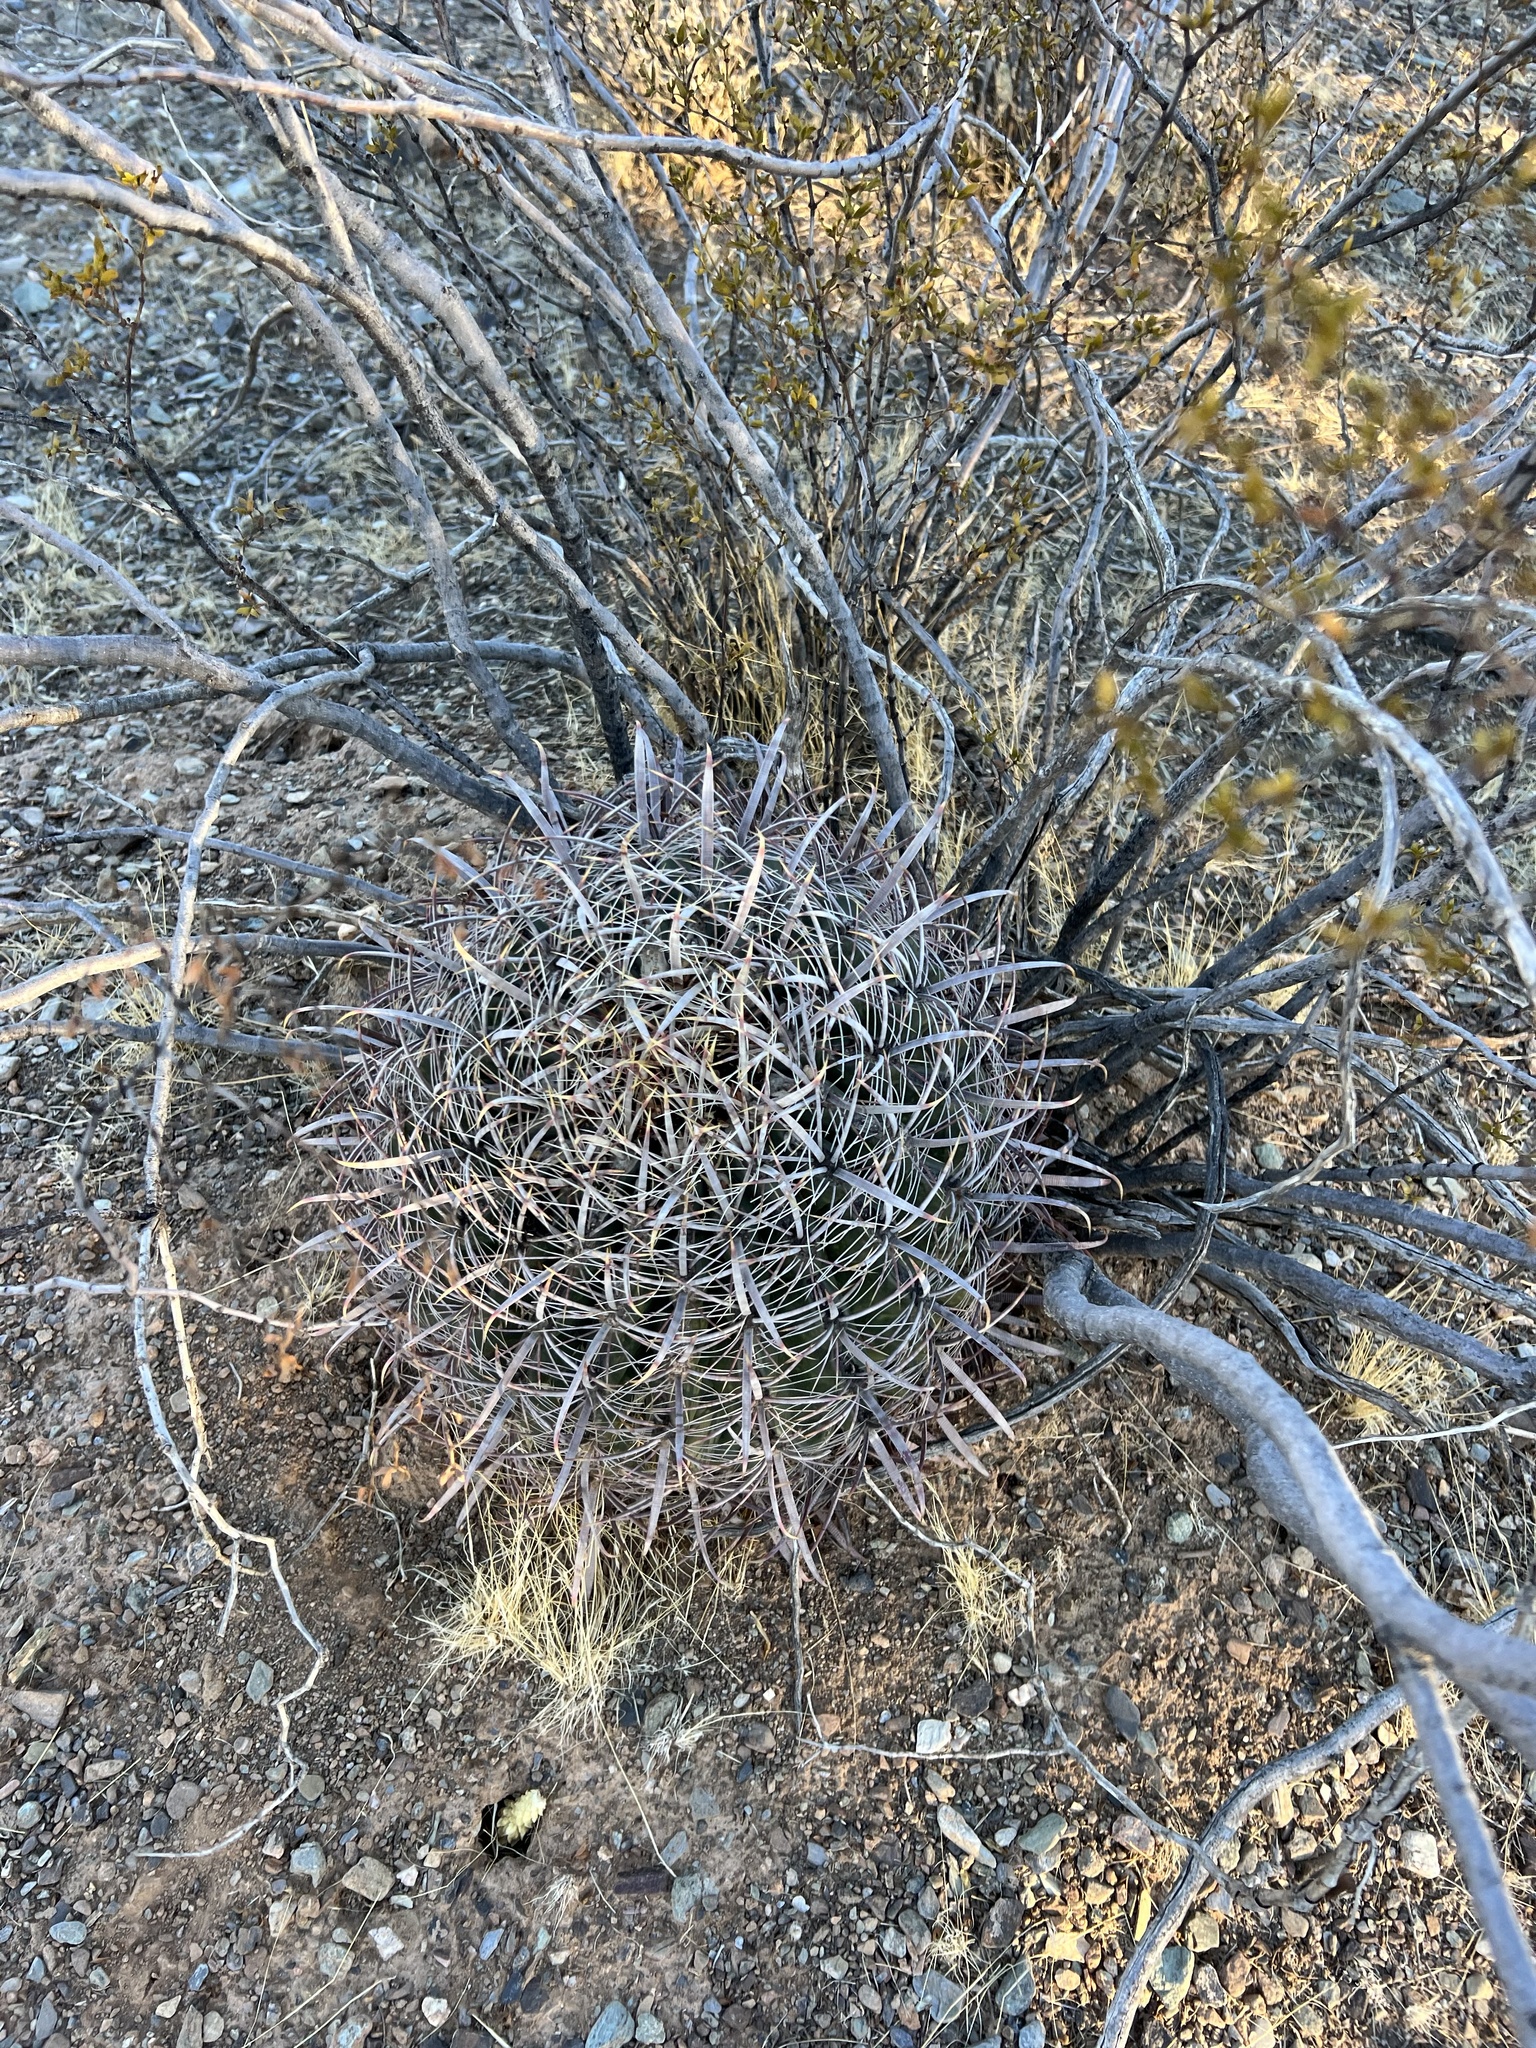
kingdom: Plantae
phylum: Tracheophyta
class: Magnoliopsida
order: Caryophyllales
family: Cactaceae
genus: Ferocactus
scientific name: Ferocactus cylindraceus
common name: California barrel cactus
